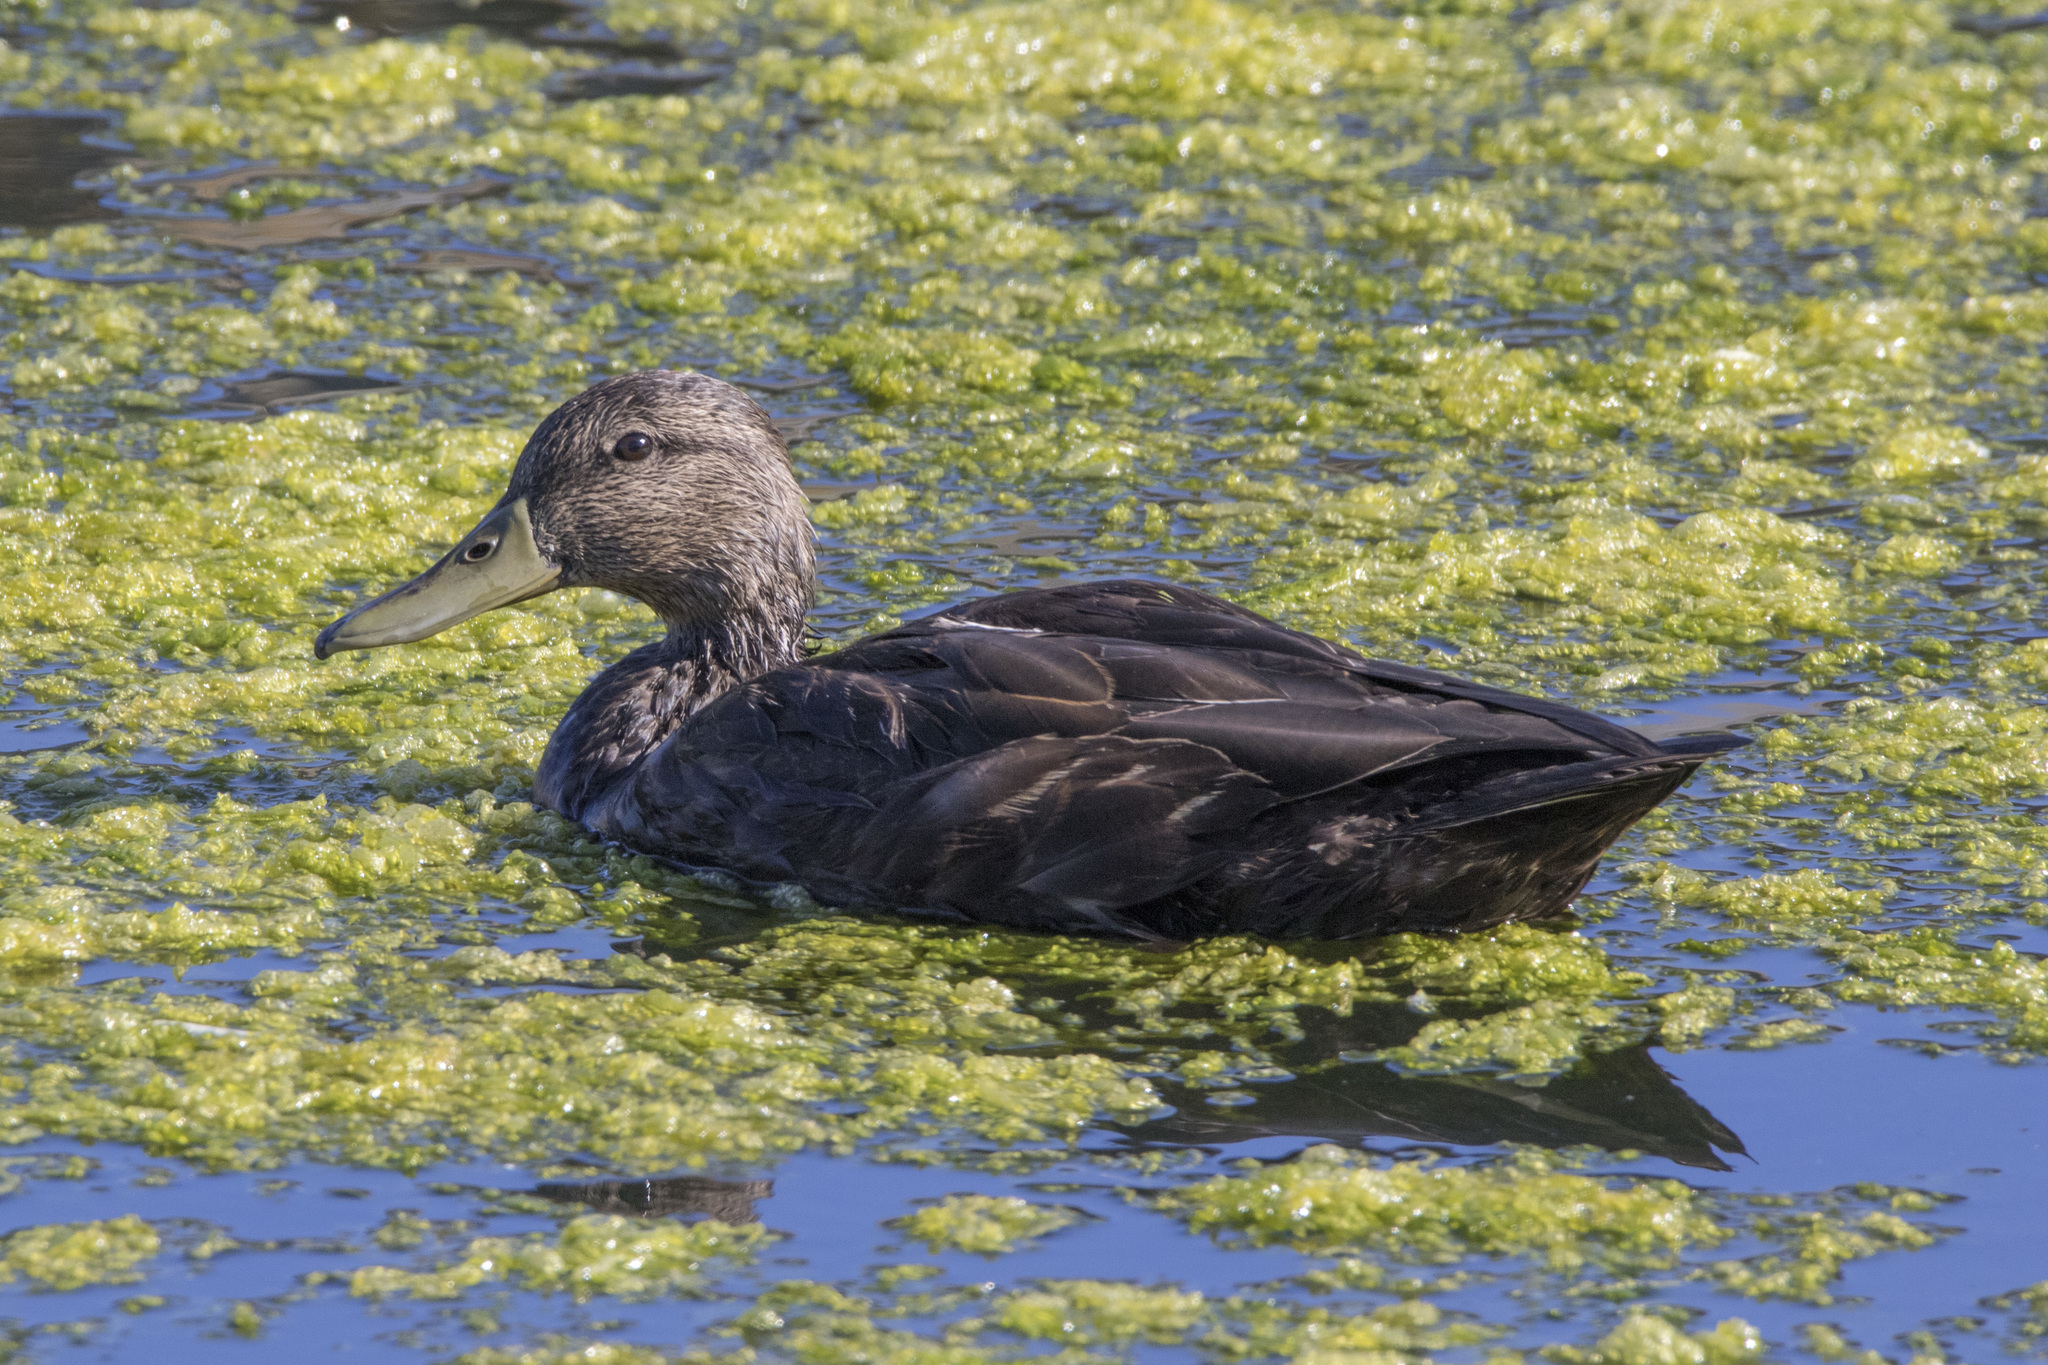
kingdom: Animalia
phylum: Chordata
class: Aves
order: Anseriformes
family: Anatidae
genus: Anas
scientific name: Anas rubripes
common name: American black duck
